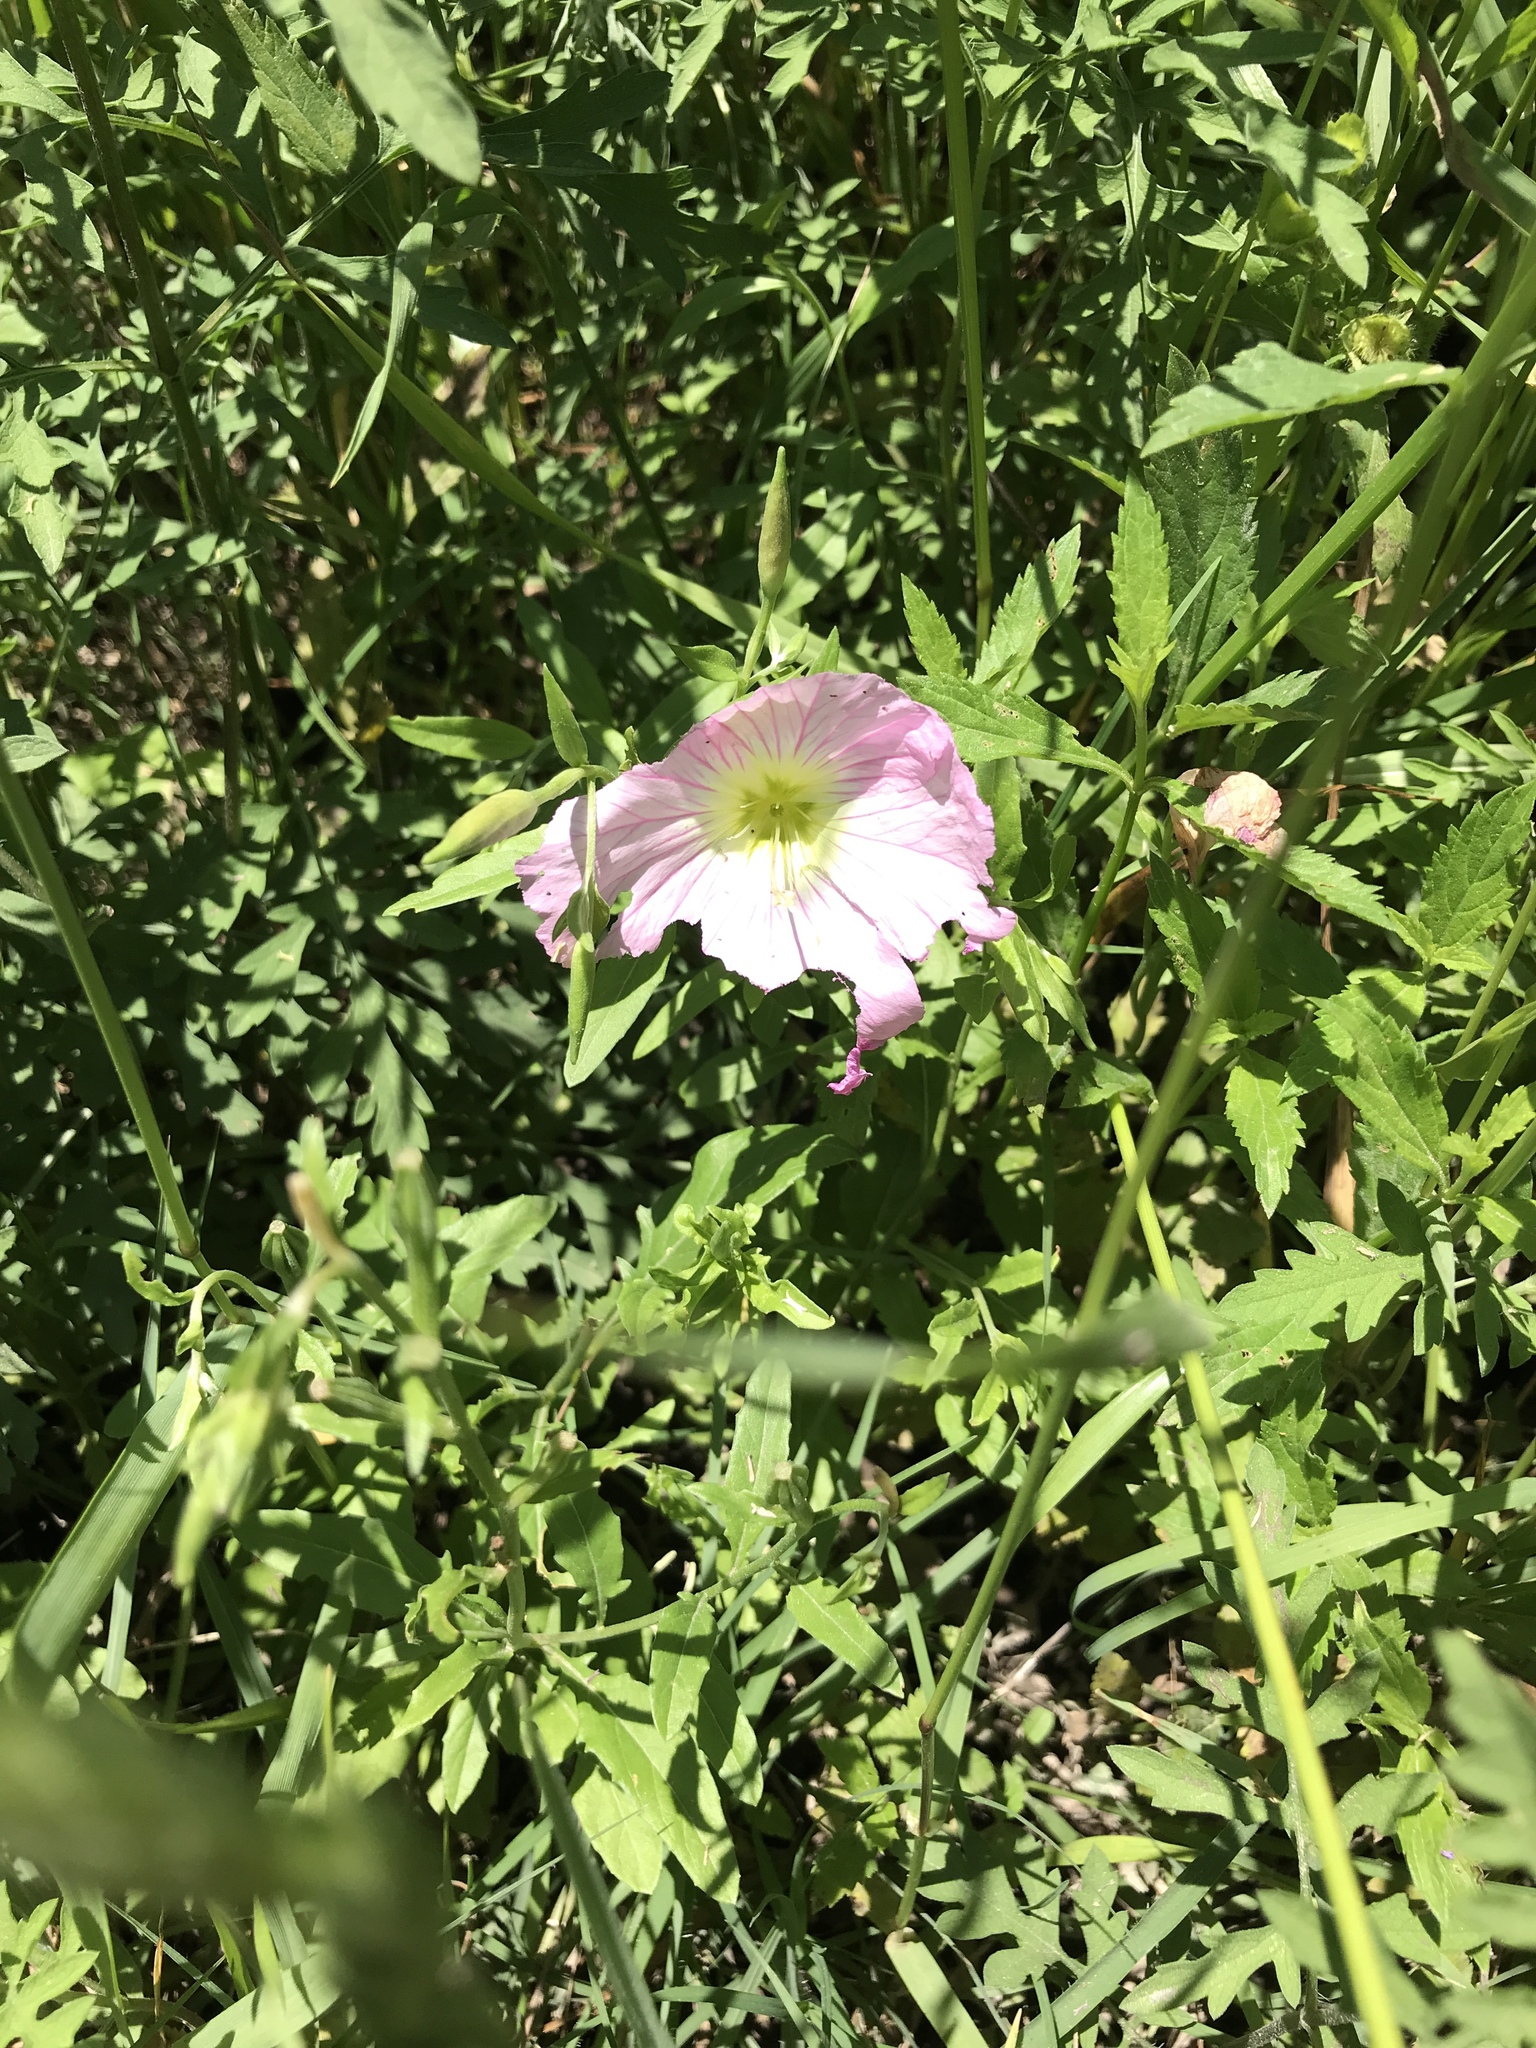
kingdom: Plantae
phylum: Tracheophyta
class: Magnoliopsida
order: Myrtales
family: Onagraceae
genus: Oenothera
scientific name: Oenothera speciosa
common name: White evening-primrose
